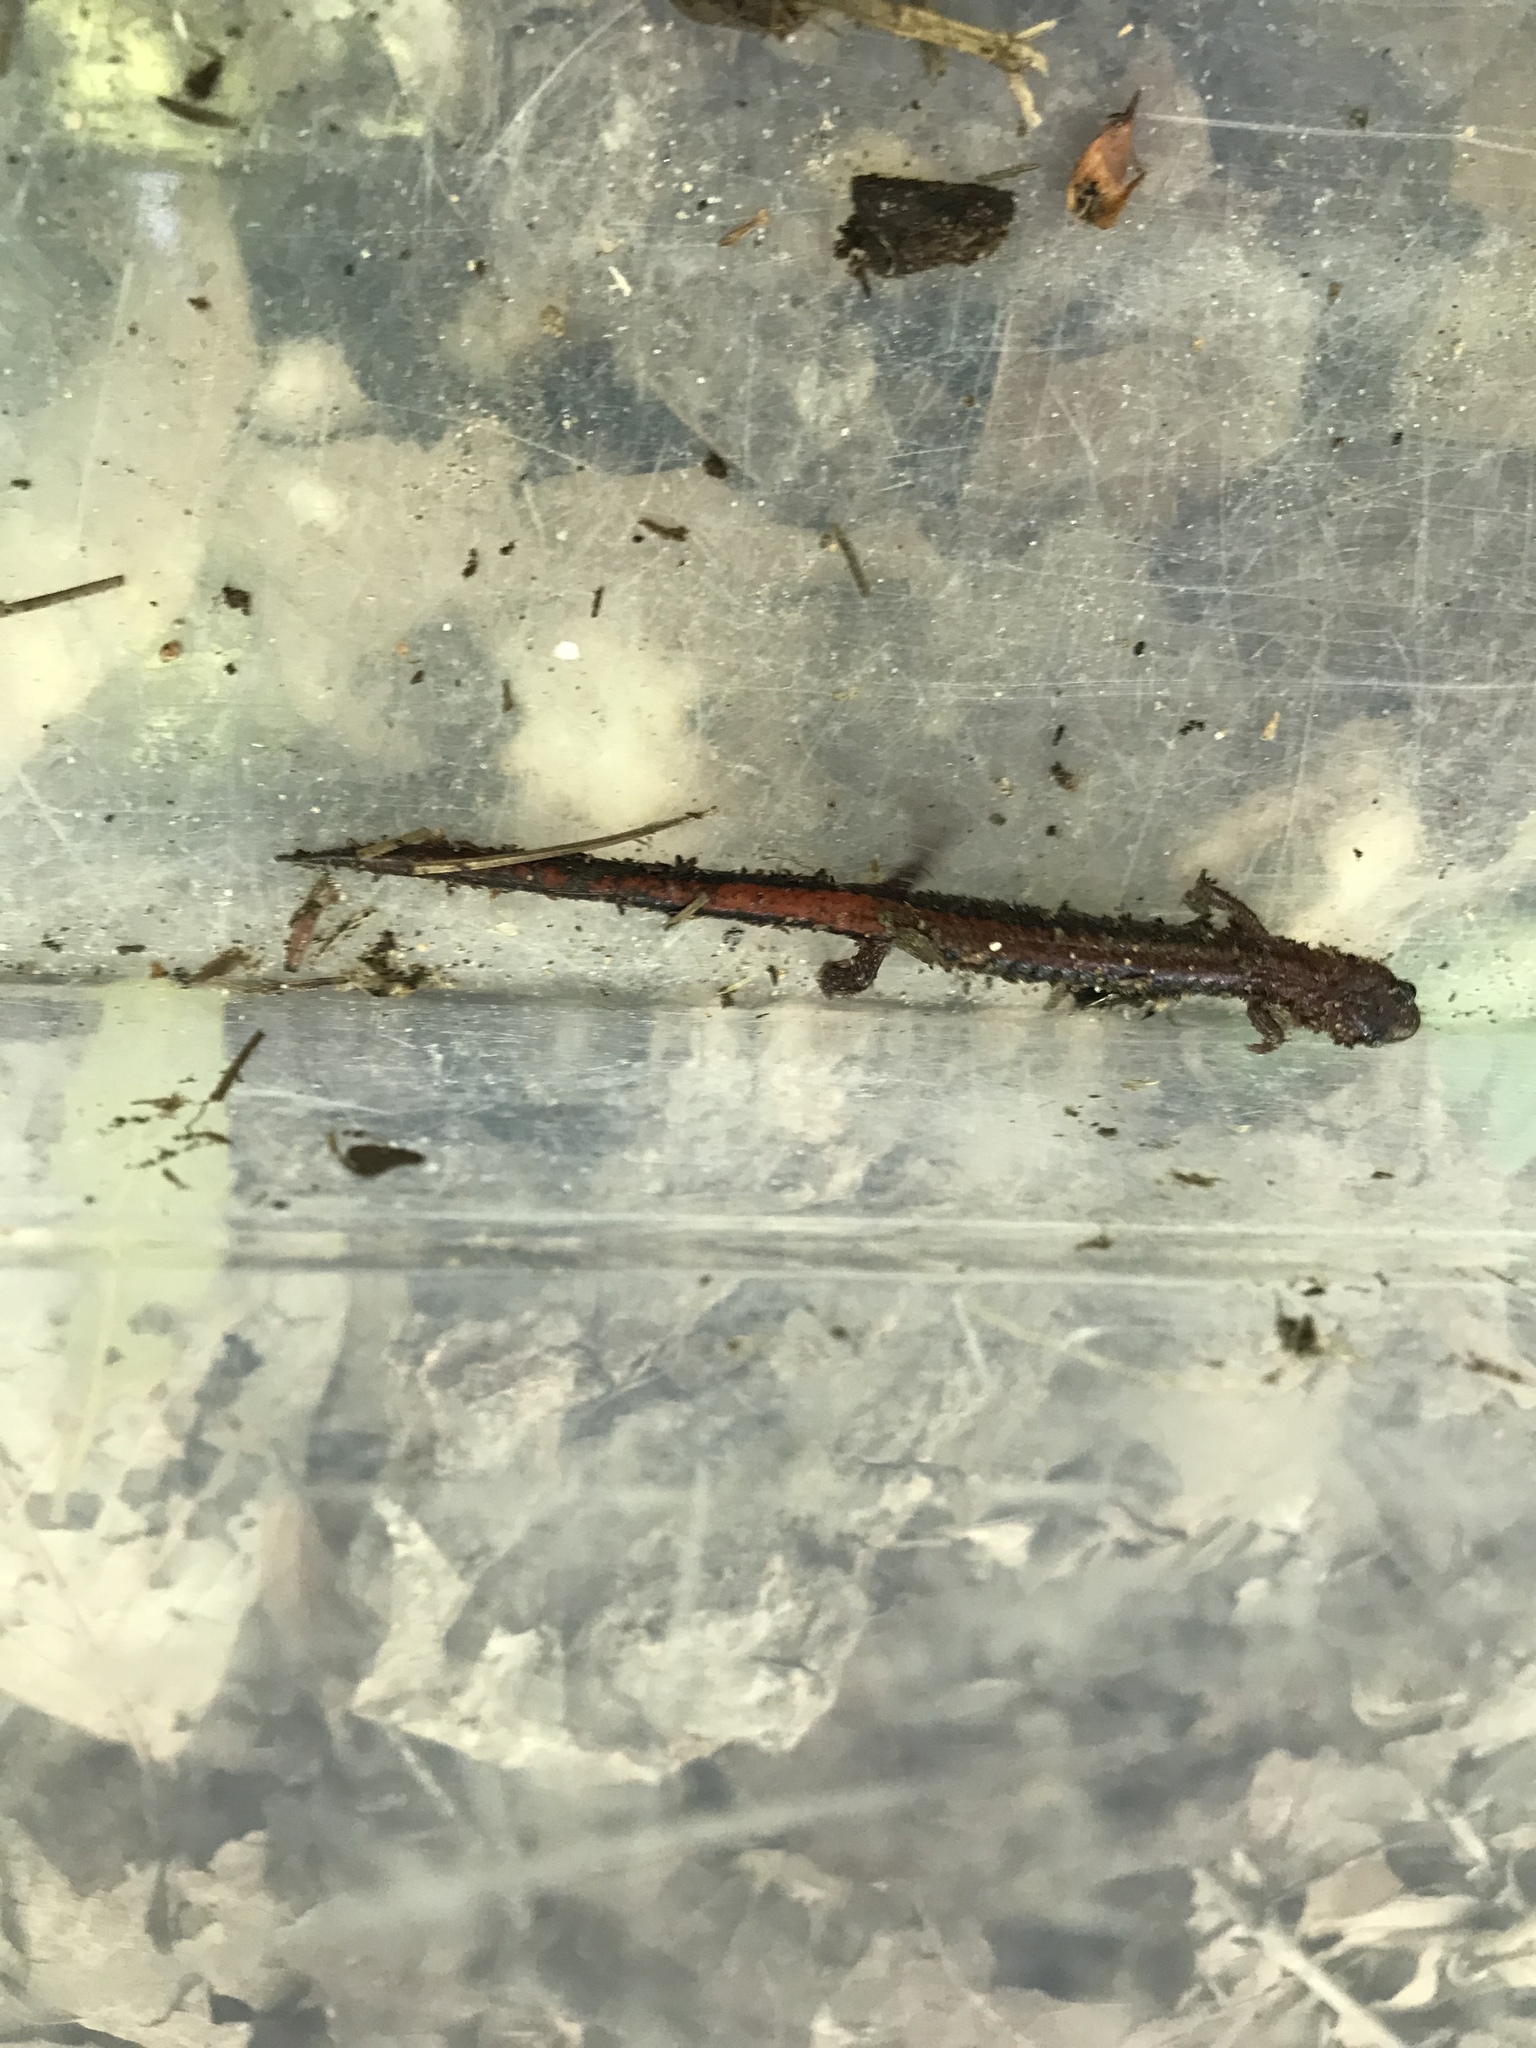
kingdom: Animalia
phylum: Chordata
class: Amphibia
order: Caudata
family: Plethodontidae
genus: Plethodon
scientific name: Plethodon cinereus
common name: Redback salamander
